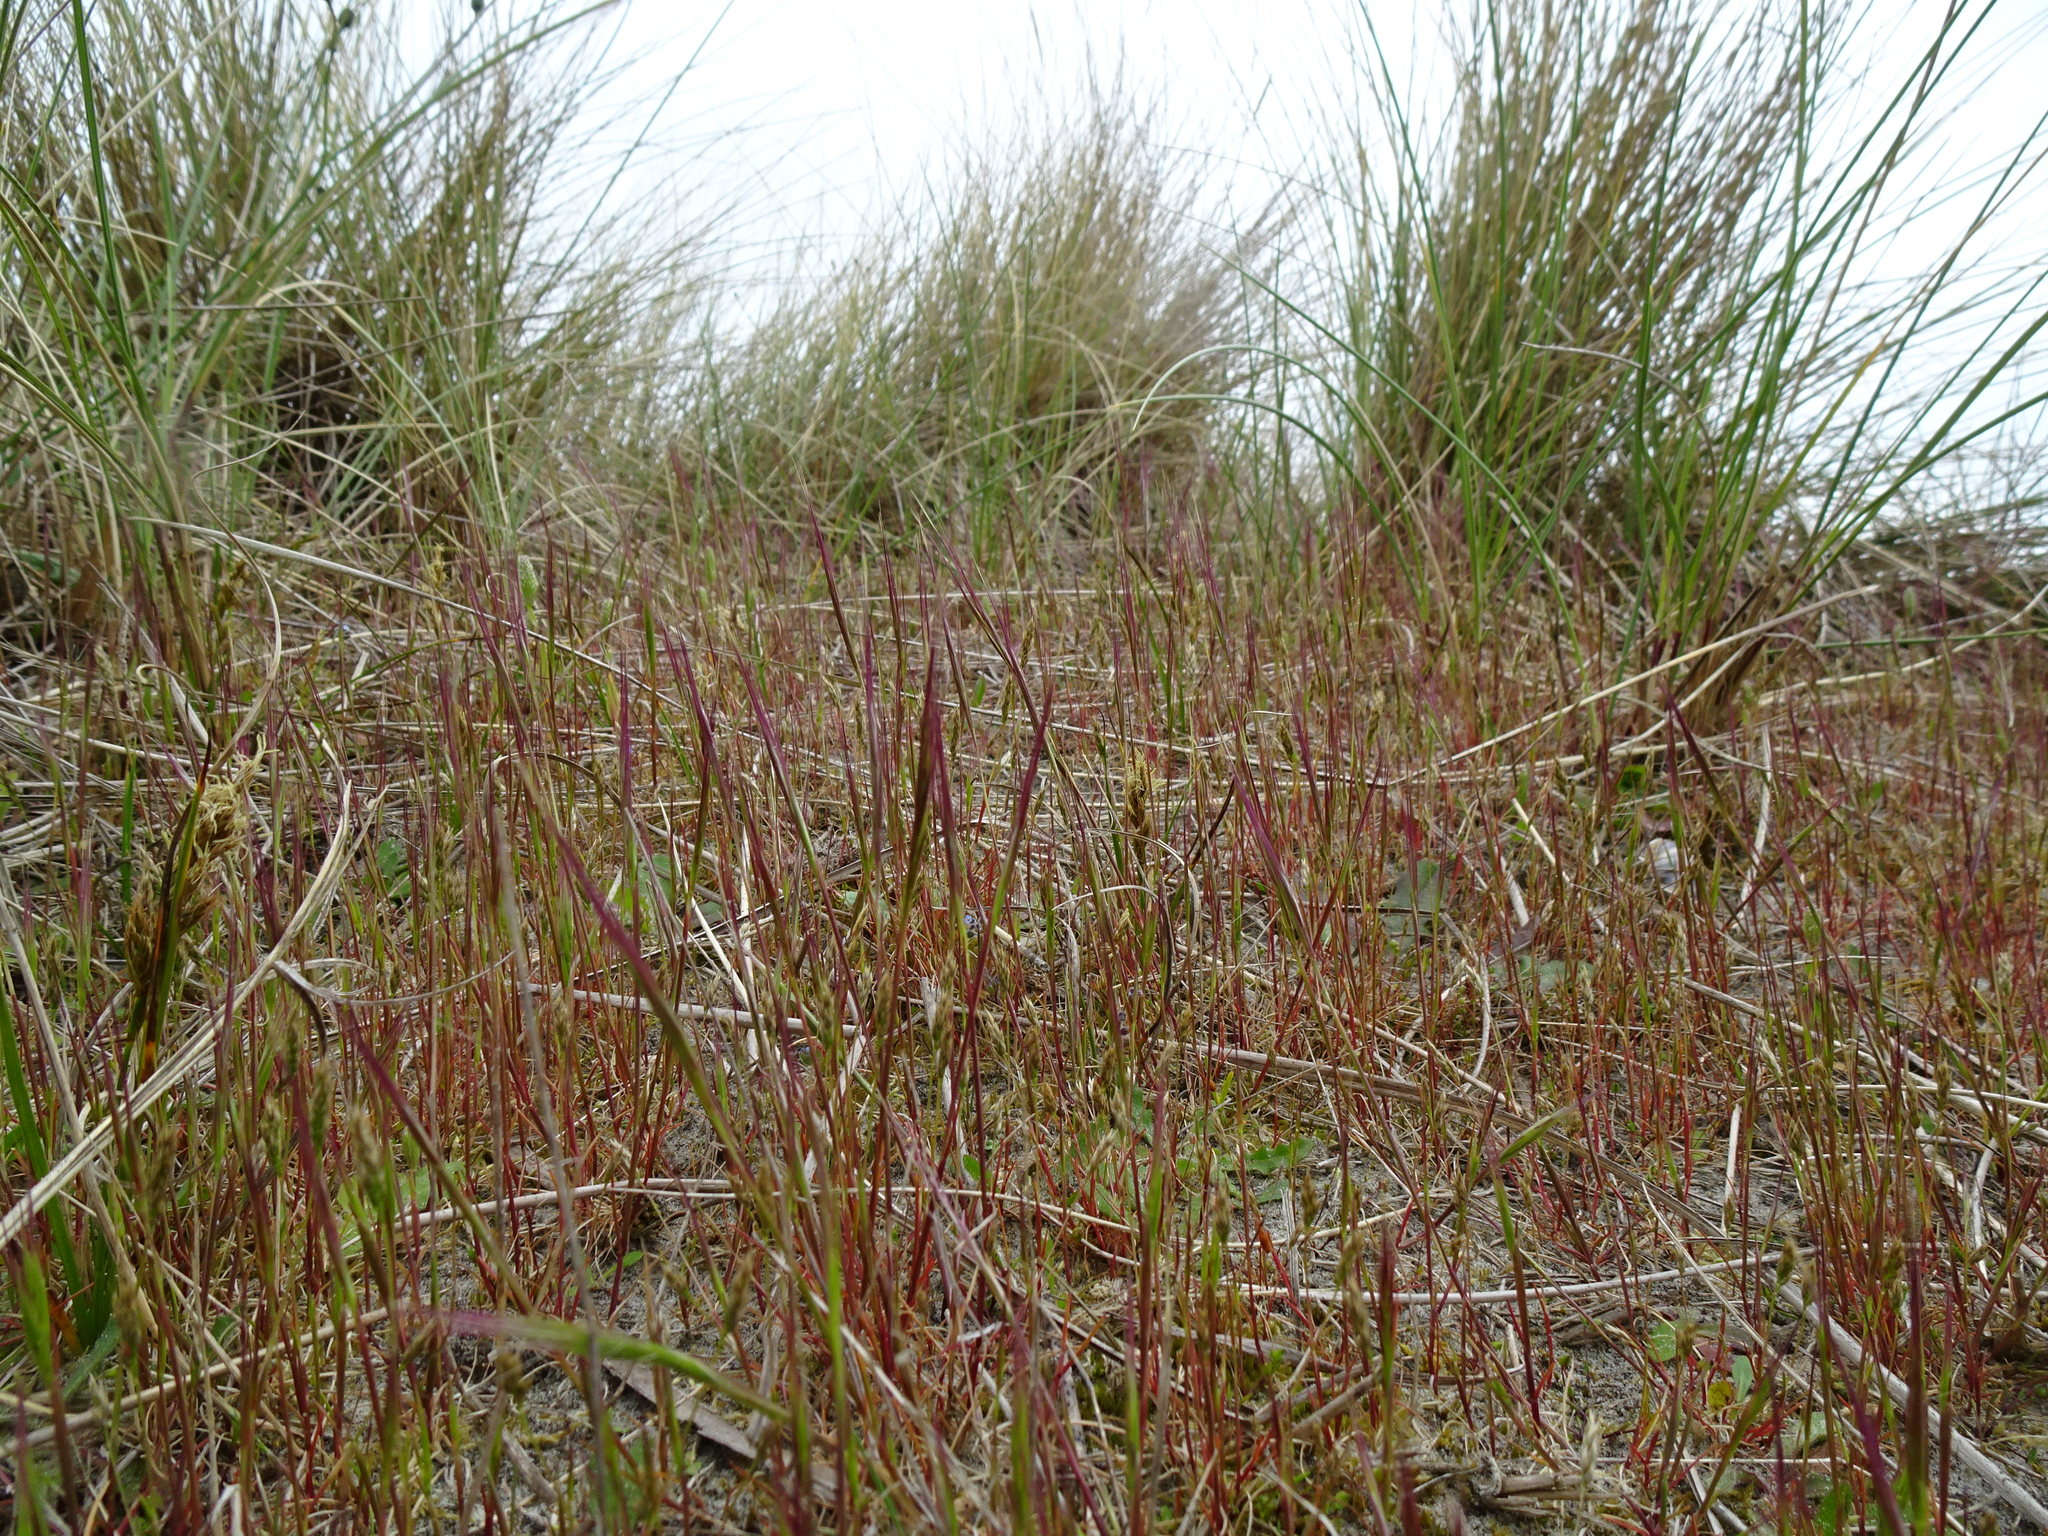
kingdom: Plantae
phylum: Tracheophyta
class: Liliopsida
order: Poales
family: Poaceae
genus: Festuca
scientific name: Festuca fasciculata
